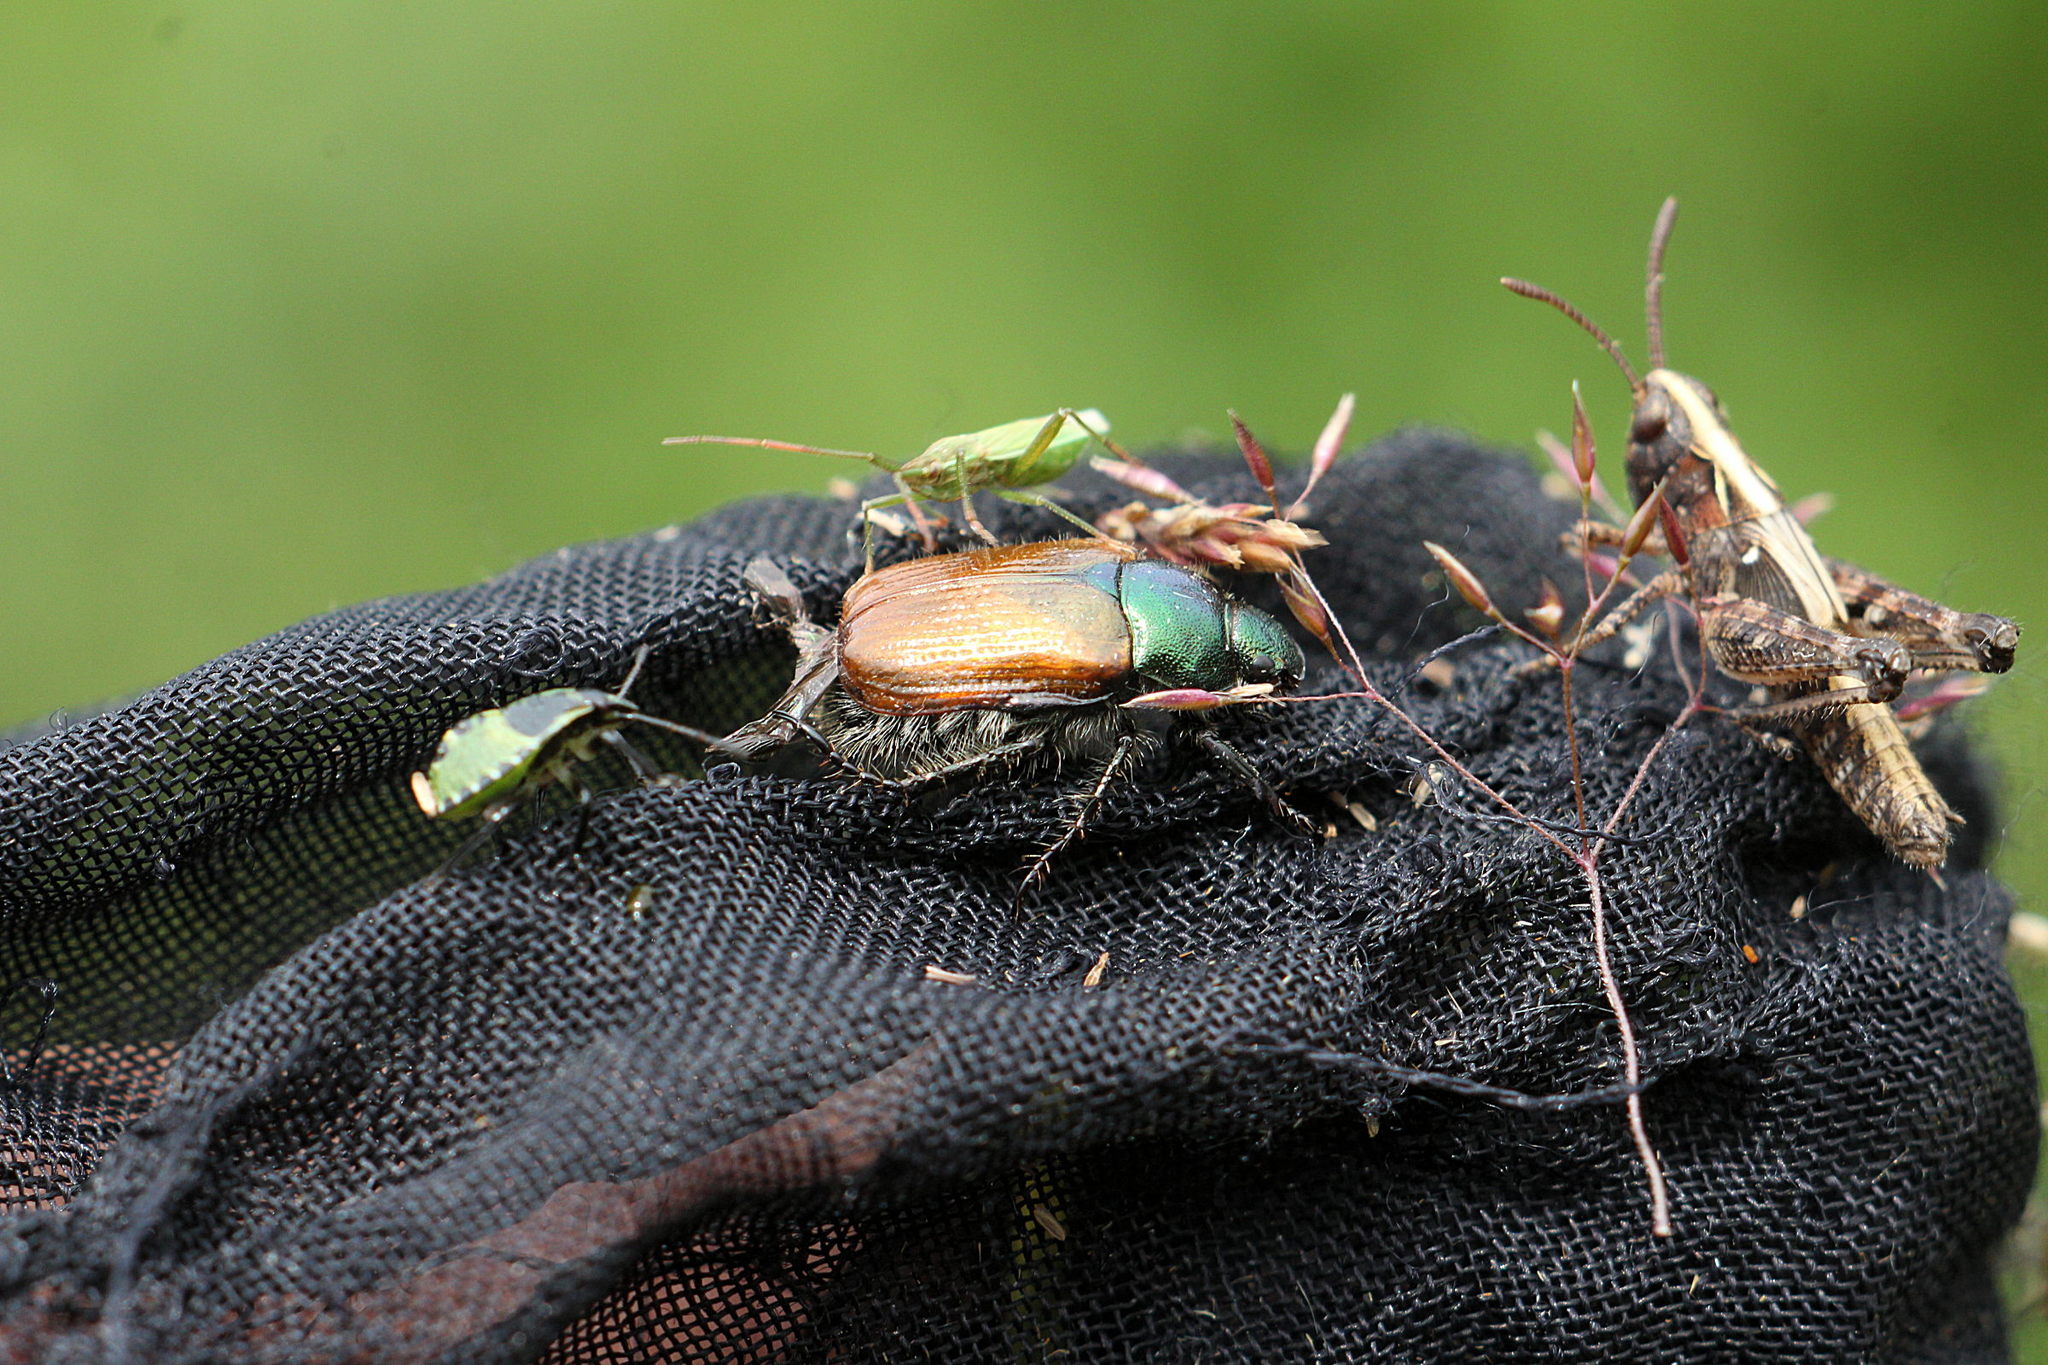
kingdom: Animalia
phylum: Arthropoda
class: Insecta
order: Coleoptera
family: Scarabaeidae
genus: Phyllopertha
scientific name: Phyllopertha horticola
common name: Garden chafer
